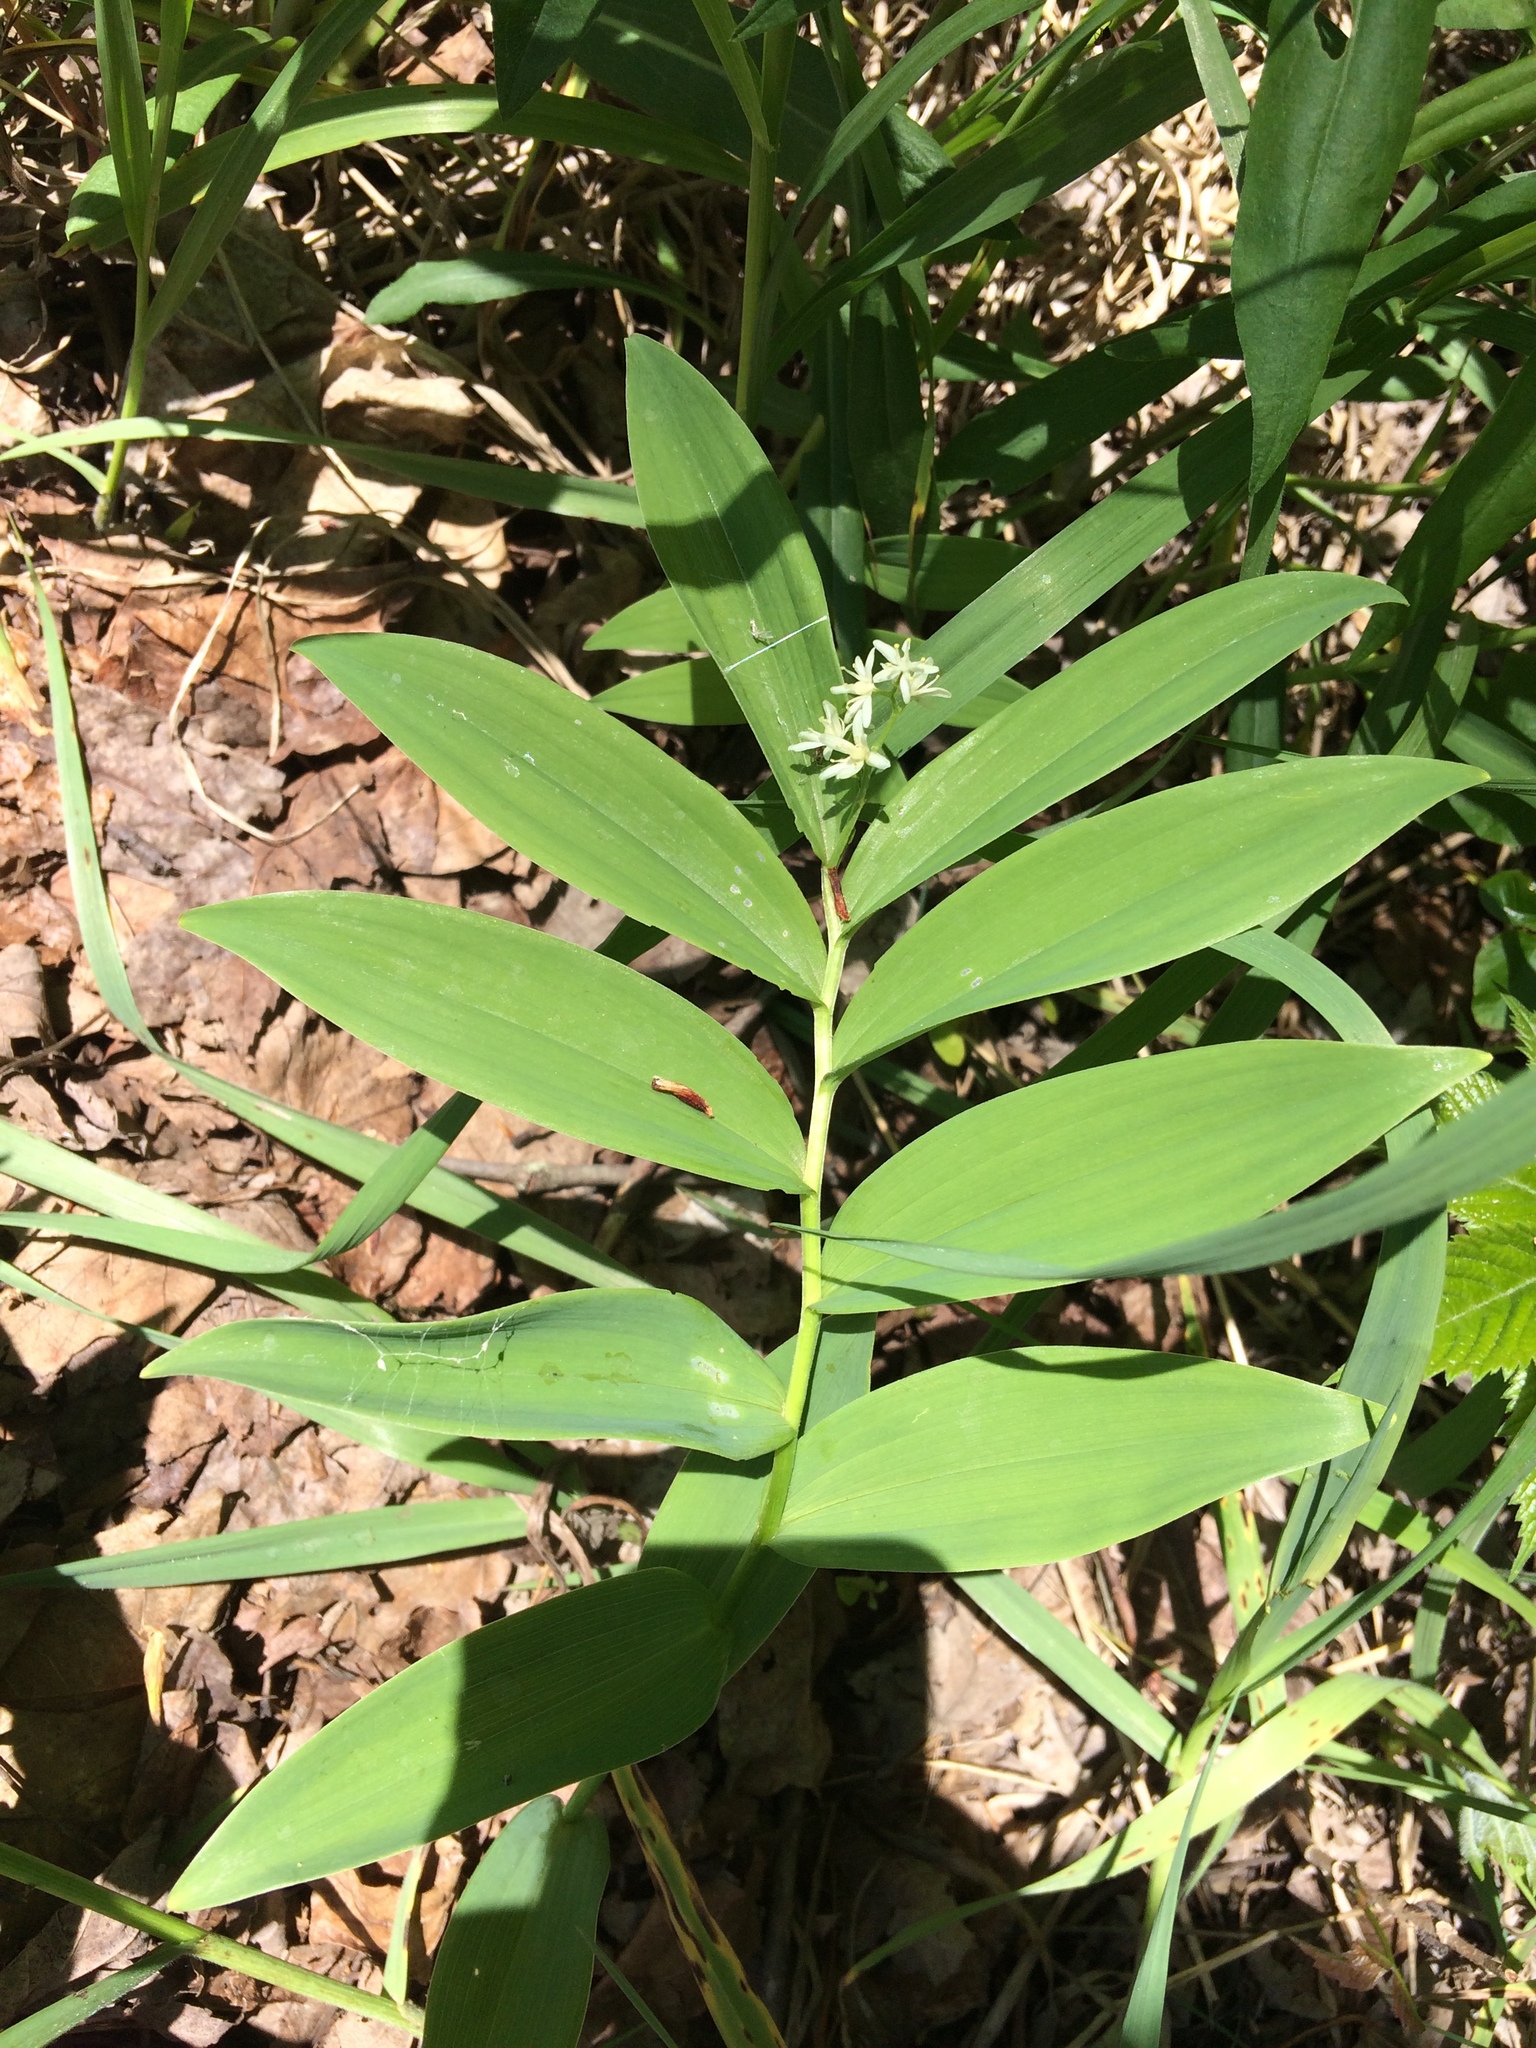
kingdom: Plantae
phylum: Tracheophyta
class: Liliopsida
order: Asparagales
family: Asparagaceae
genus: Maianthemum
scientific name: Maianthemum stellatum
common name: Little false solomon's seal
